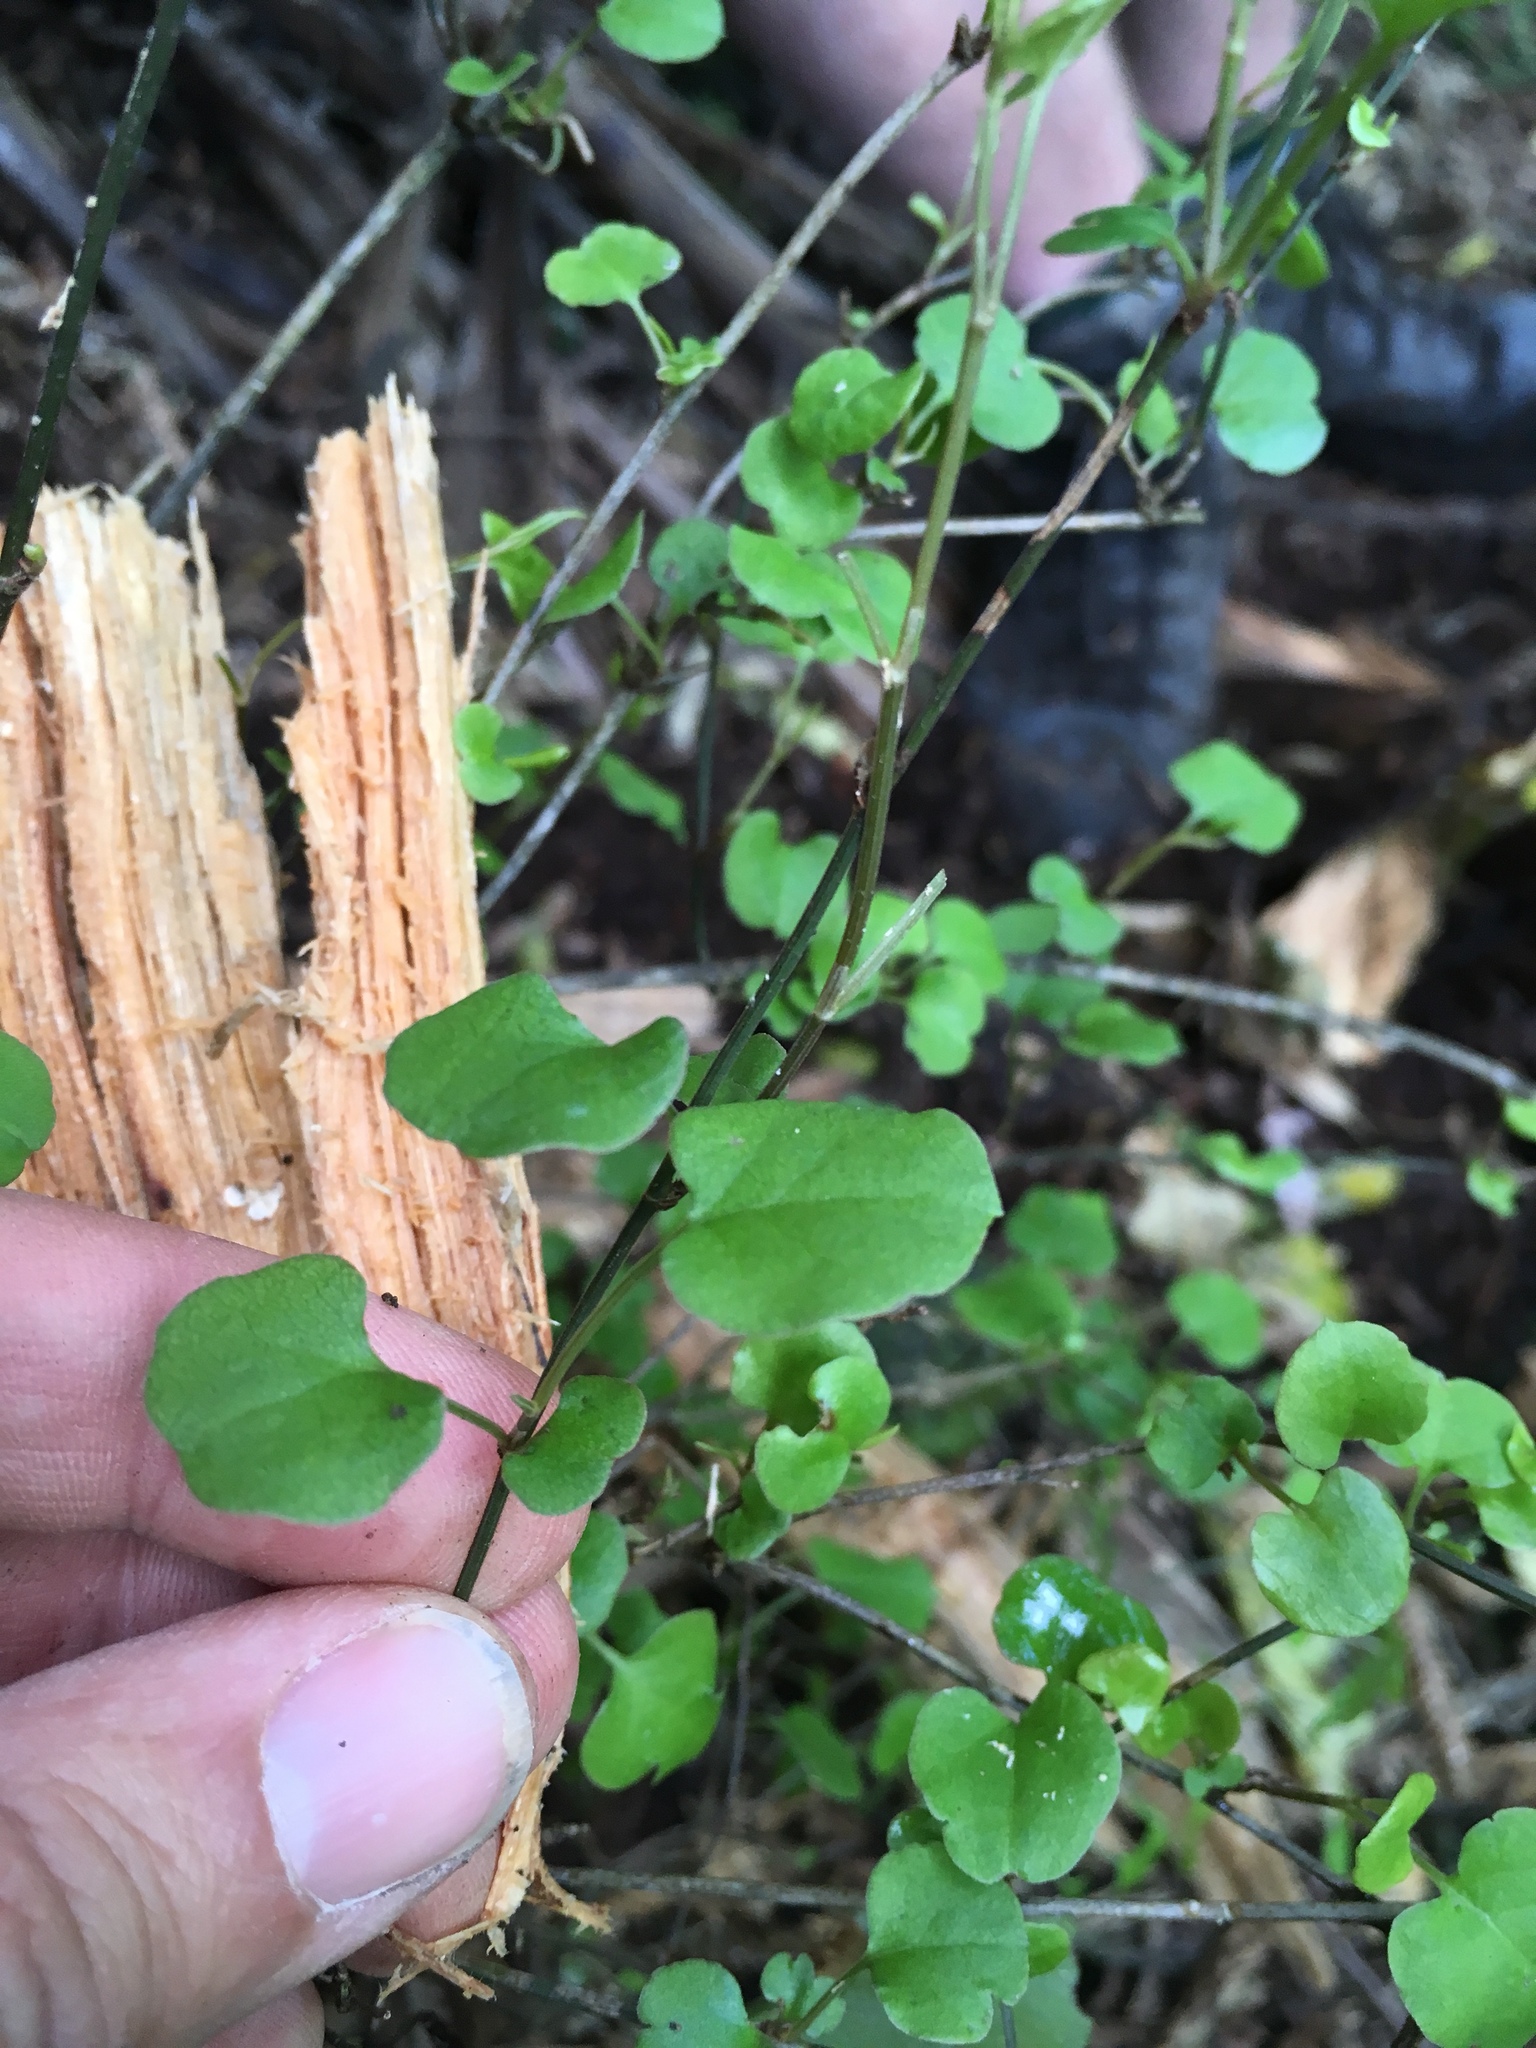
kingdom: Plantae
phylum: Tracheophyta
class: Magnoliopsida
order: Caryophyllales
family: Polygonaceae
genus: Muehlenbeckia
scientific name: Muehlenbeckia australis
